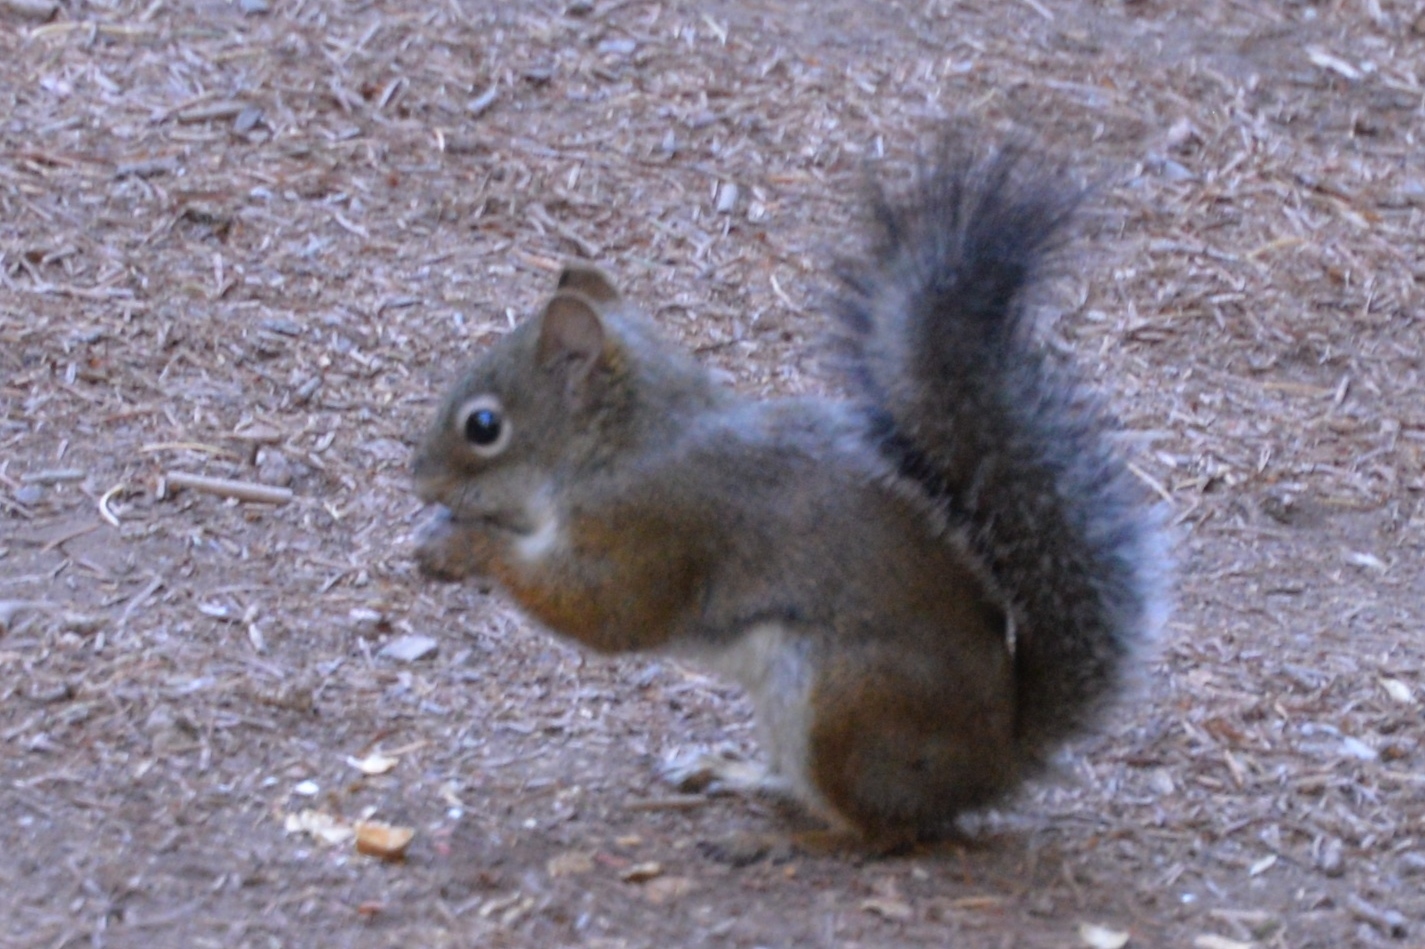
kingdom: Animalia
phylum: Chordata
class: Mammalia
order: Rodentia
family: Sciuridae
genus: Tamiasciurus
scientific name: Tamiasciurus hudsonicus
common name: Red squirrel
